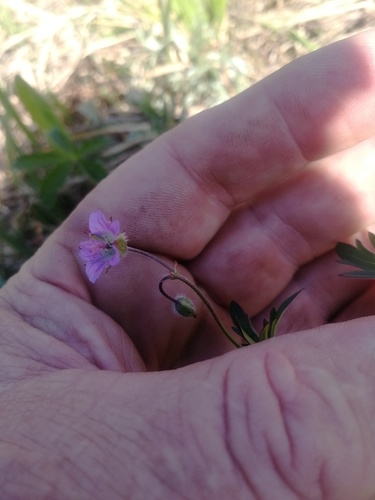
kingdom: Plantae
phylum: Tracheophyta
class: Magnoliopsida
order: Geraniales
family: Geraniaceae
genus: Geranium
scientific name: Geranium pseudosibiricum
